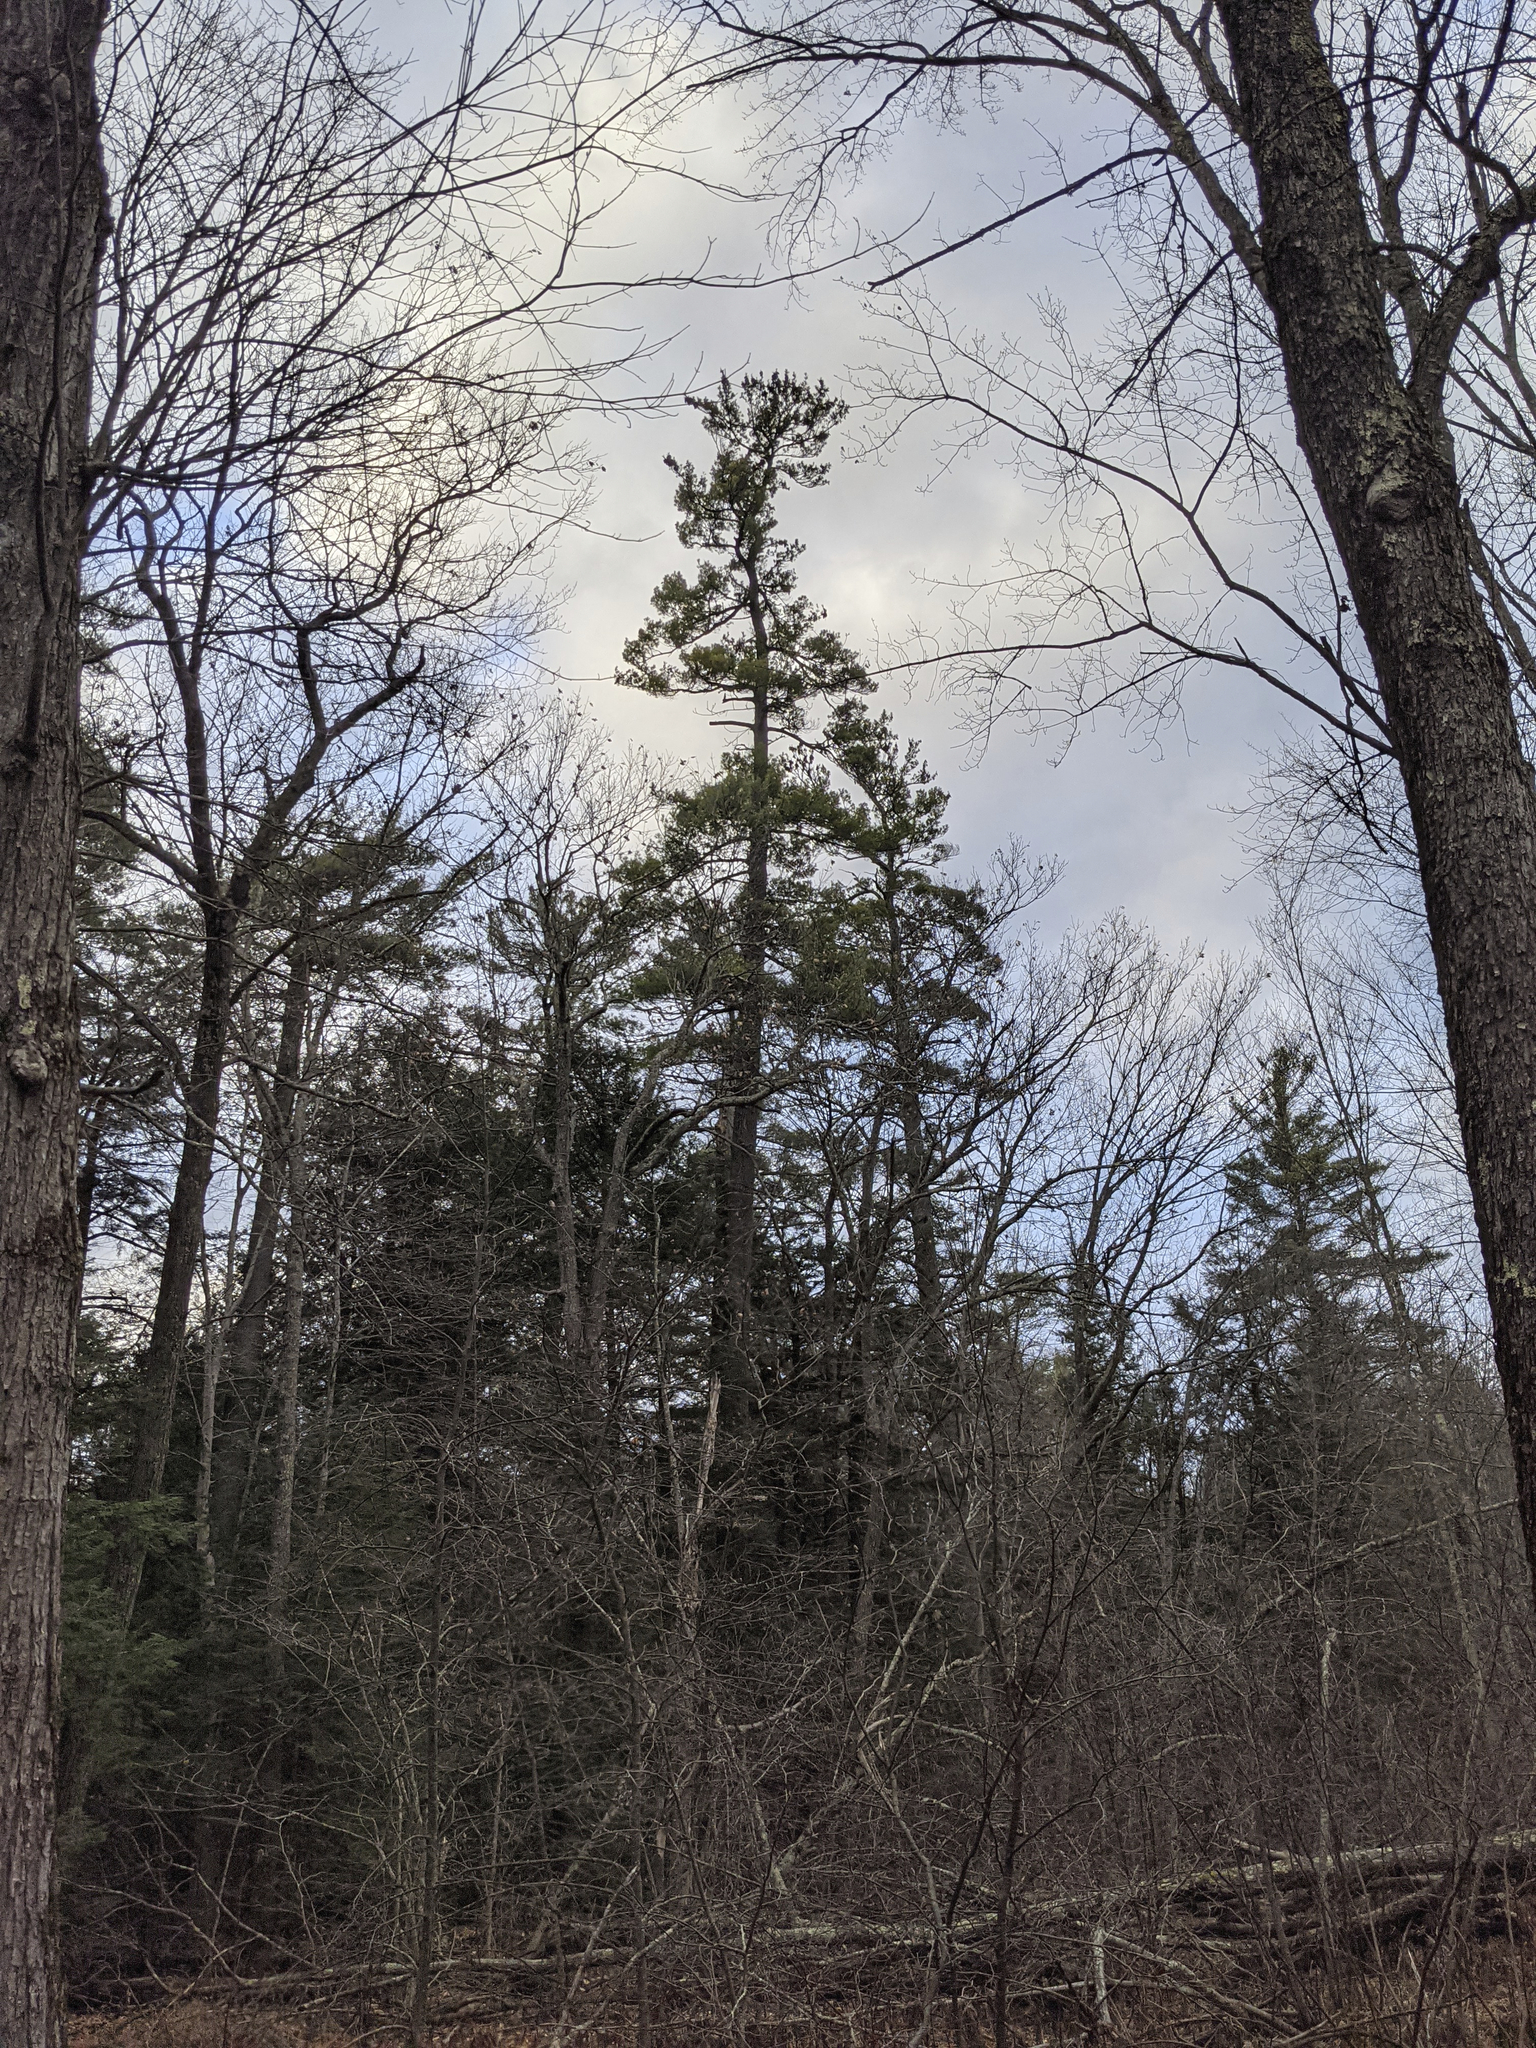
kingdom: Plantae
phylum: Tracheophyta
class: Pinopsida
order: Pinales
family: Pinaceae
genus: Pinus
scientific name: Pinus strobus
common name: Weymouth pine
